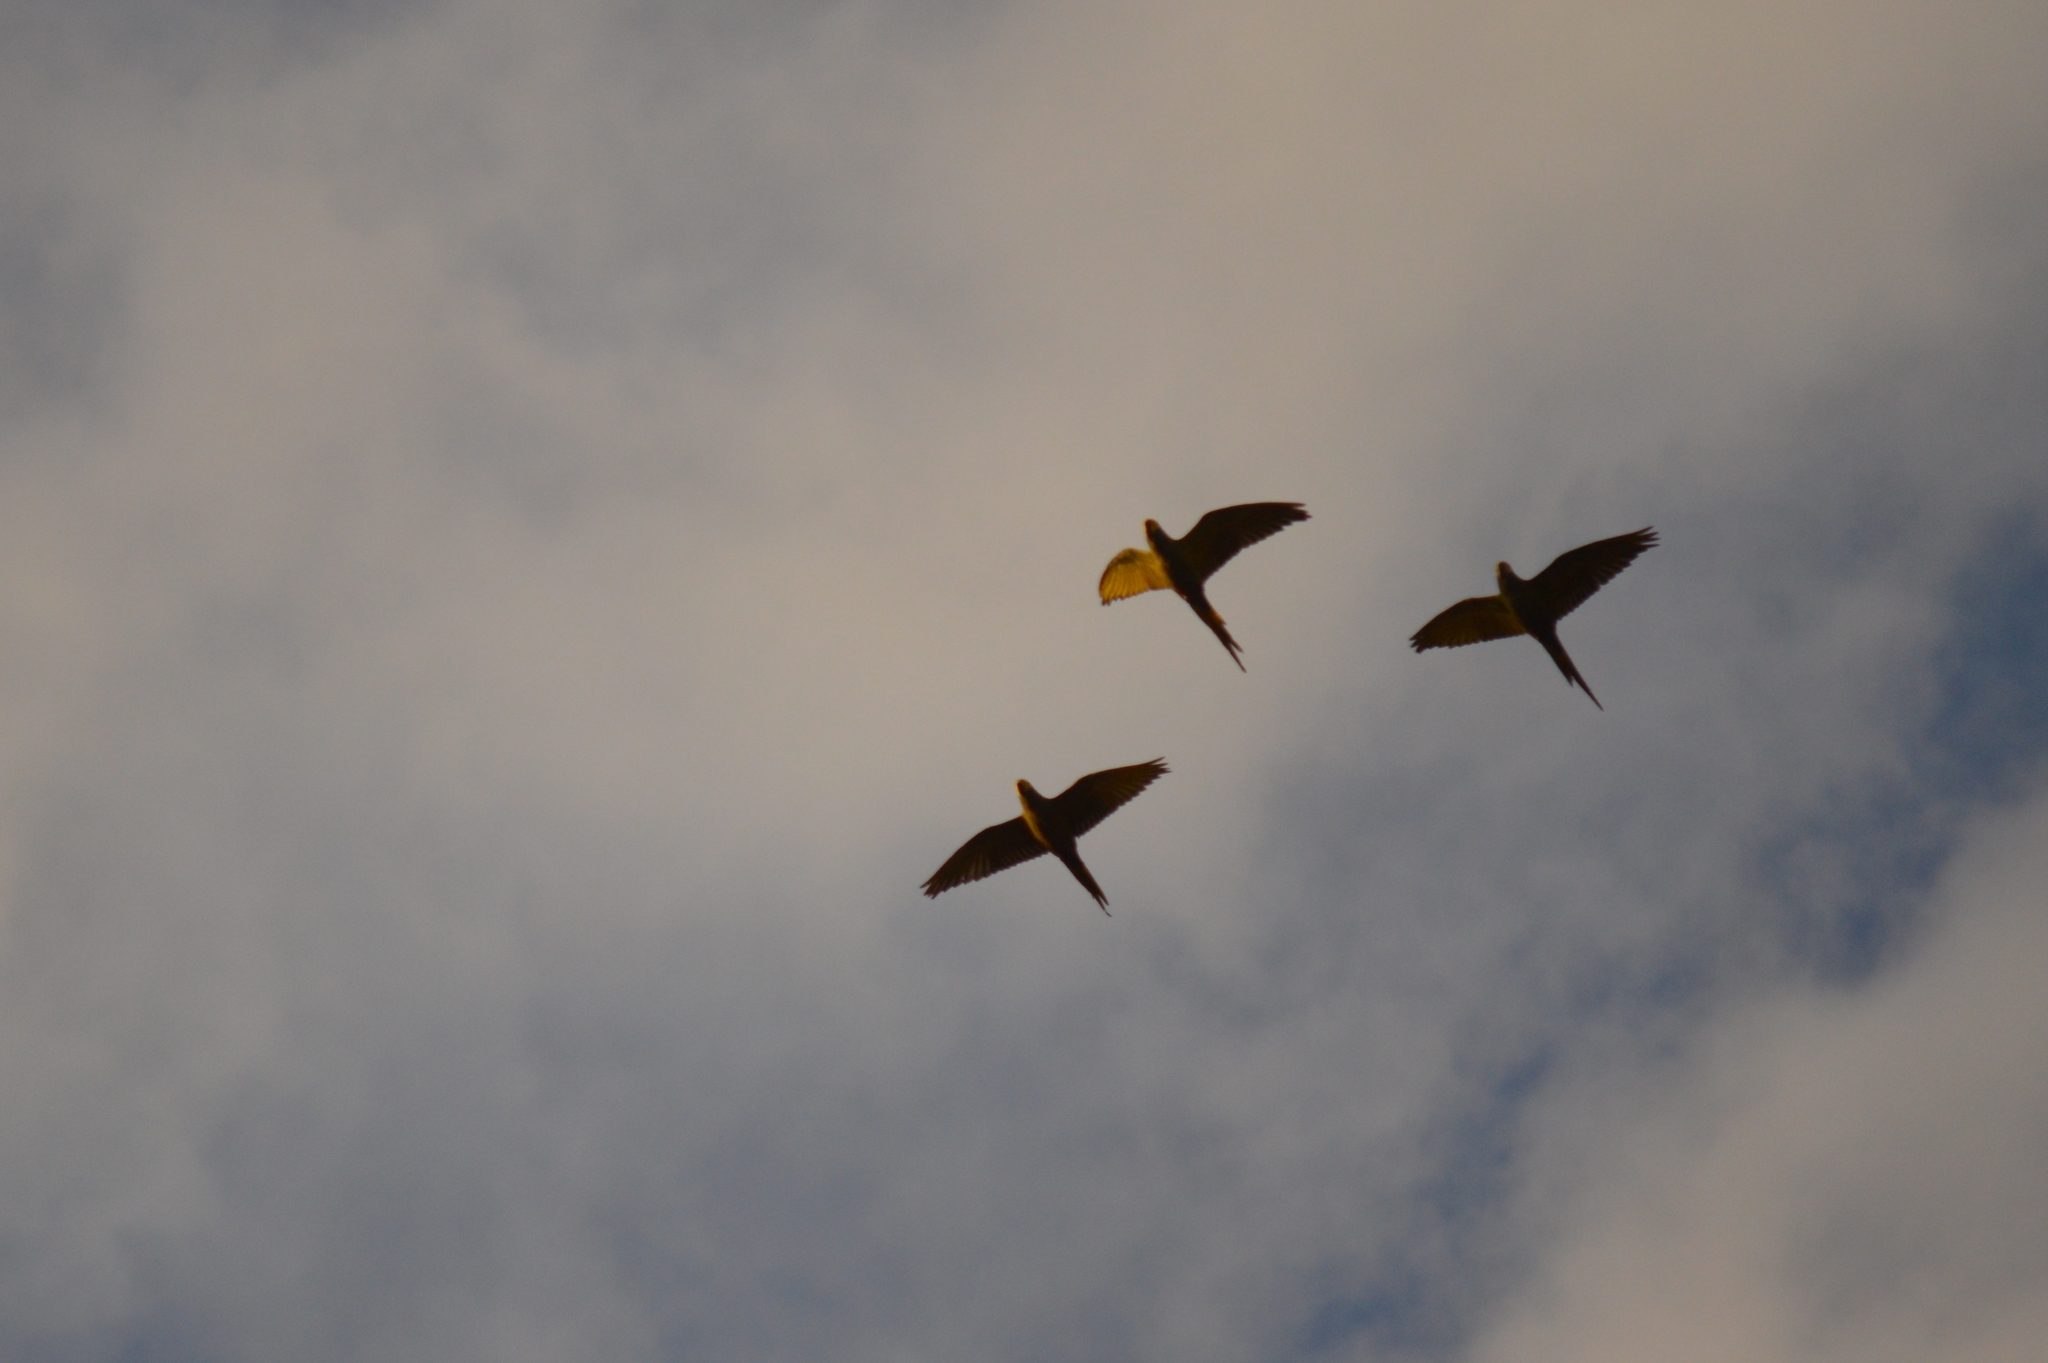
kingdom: Animalia
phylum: Chordata
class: Aves
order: Psittaciformes
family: Psittacidae
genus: Orthopsittaca
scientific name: Orthopsittaca manilata
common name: Red-bellied macaw
